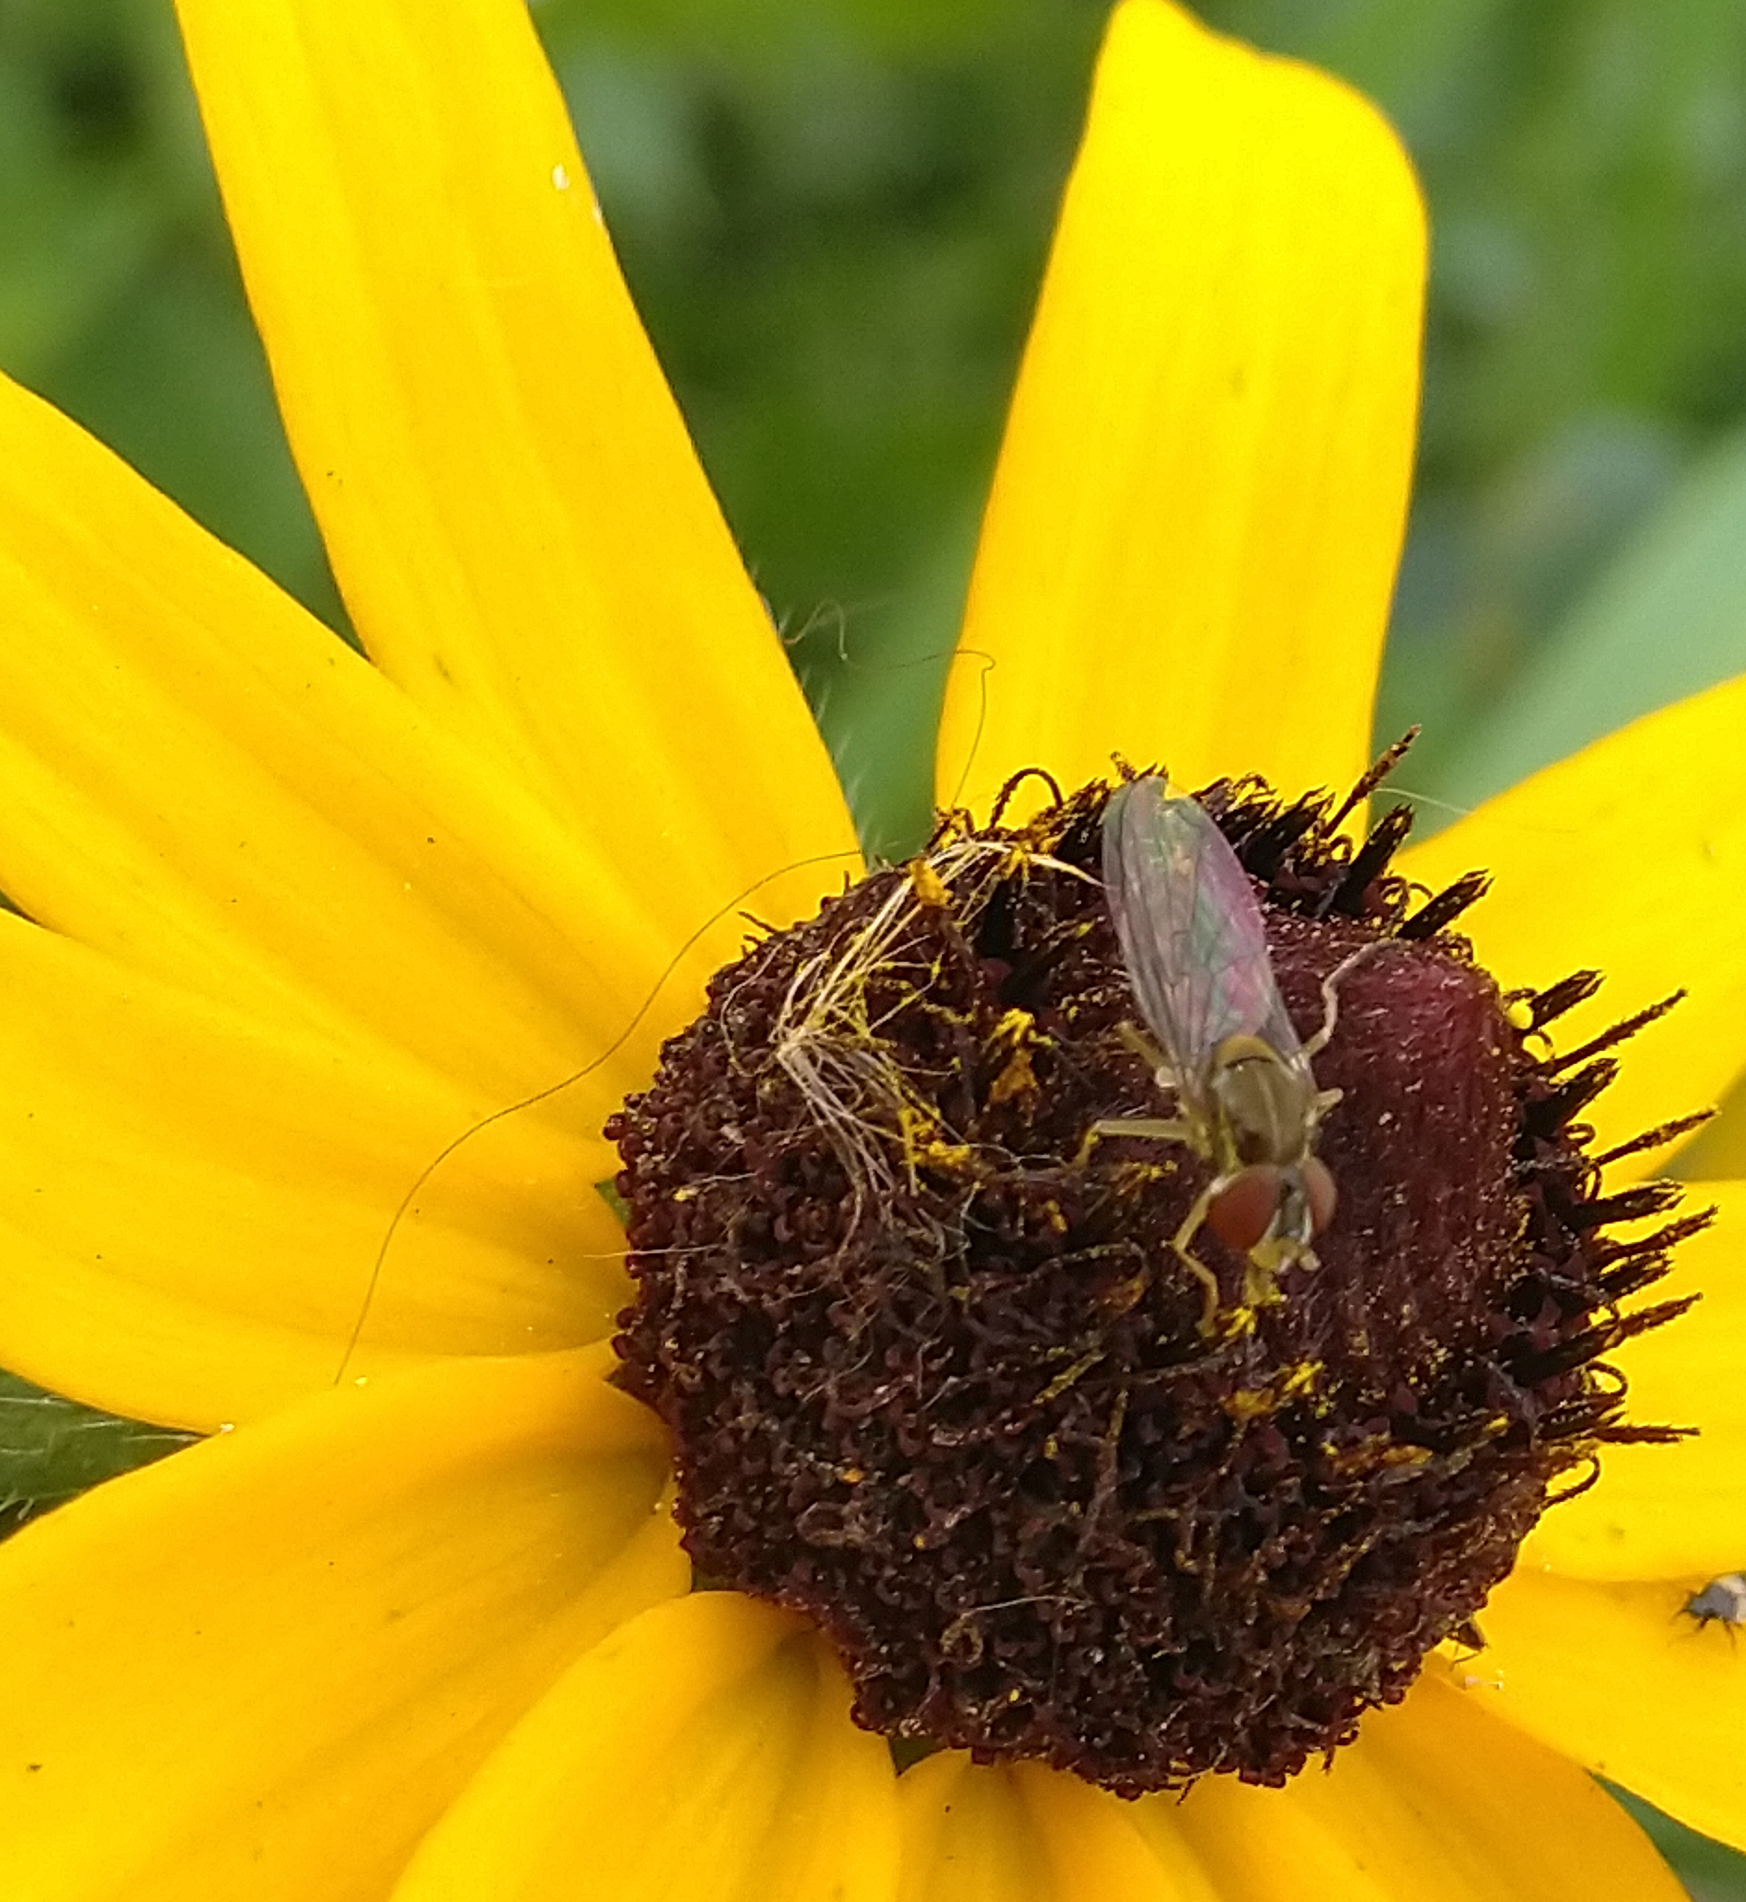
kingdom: Animalia
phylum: Arthropoda
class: Insecta
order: Diptera
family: Syrphidae
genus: Toxomerus
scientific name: Toxomerus marginatus
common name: Syrphid fly
